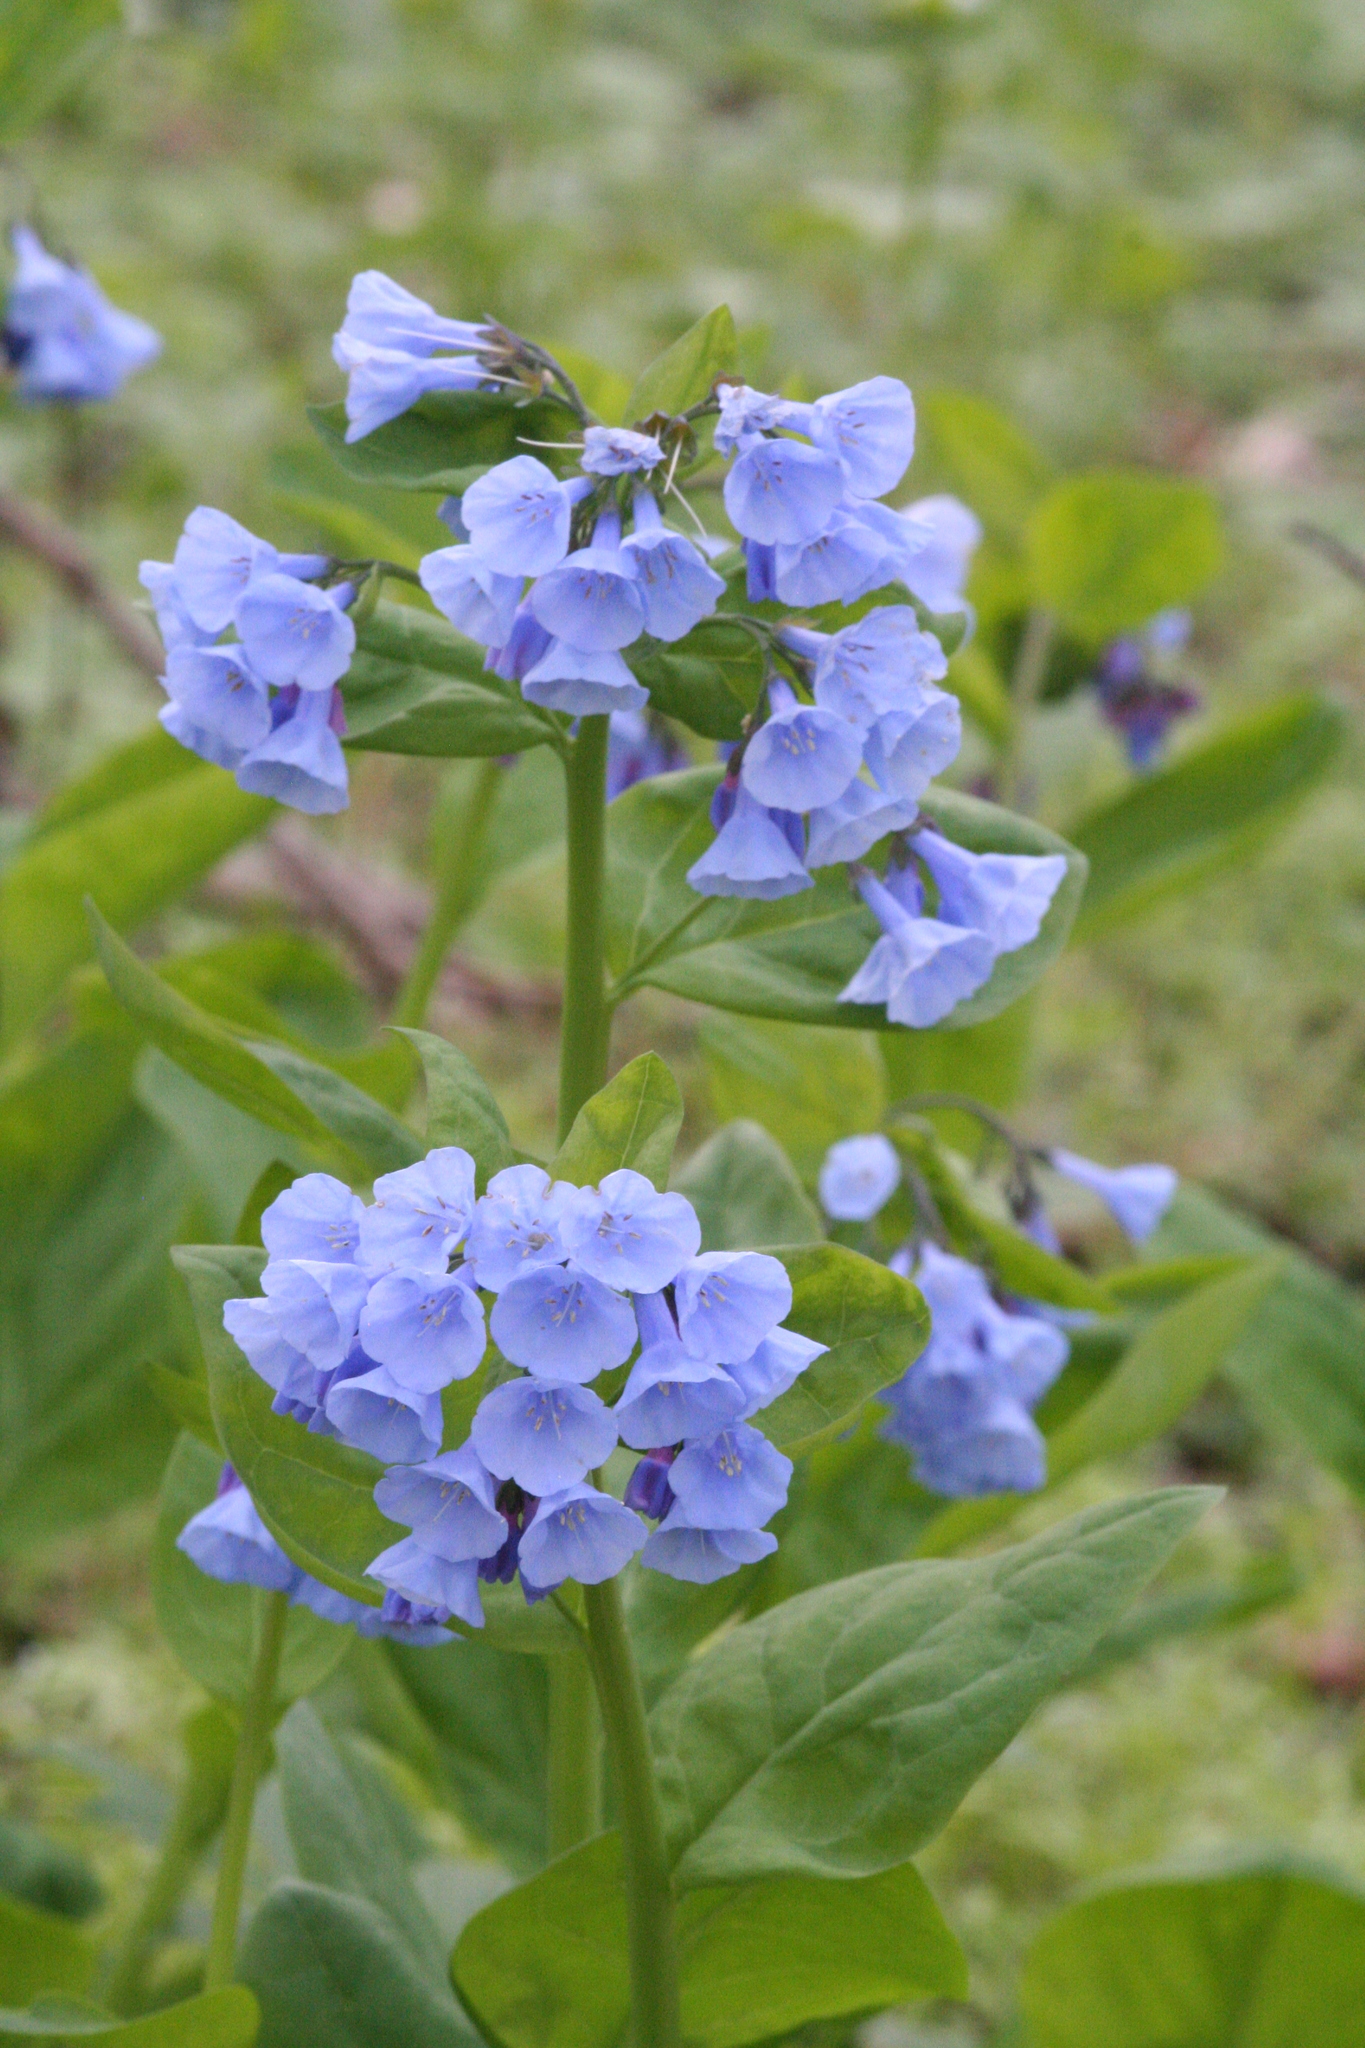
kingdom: Plantae
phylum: Tracheophyta
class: Magnoliopsida
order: Boraginales
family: Boraginaceae
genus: Mertensia
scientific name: Mertensia virginica
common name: Virginia bluebells
